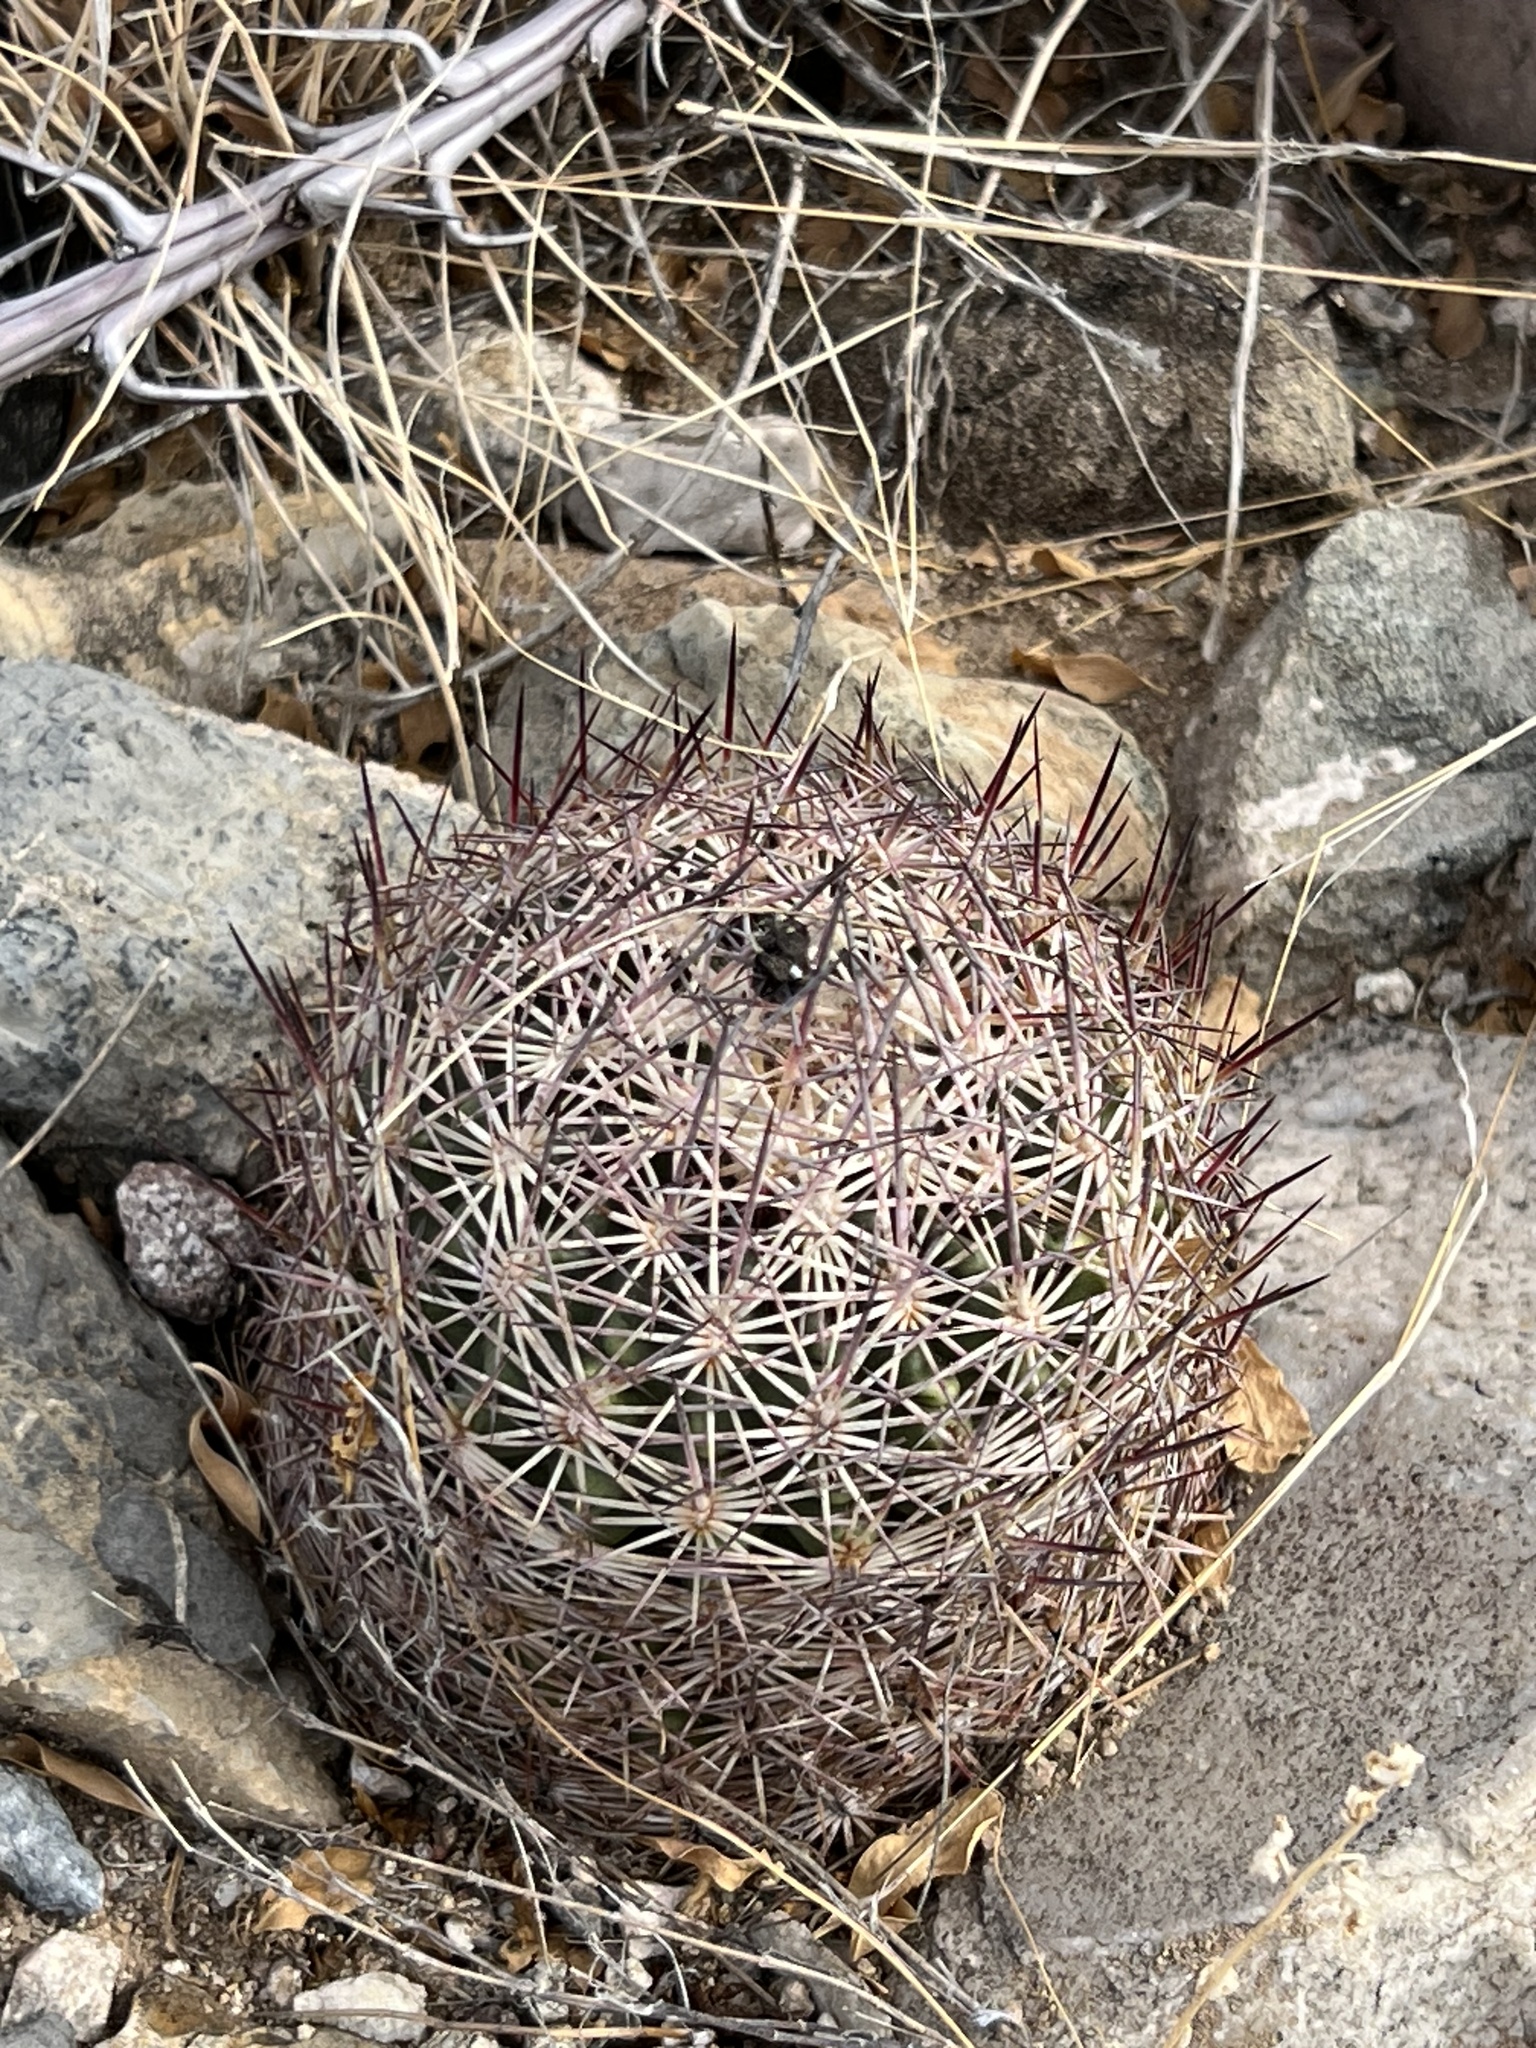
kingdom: Plantae
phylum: Tracheophyta
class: Magnoliopsida
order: Caryophyllales
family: Cactaceae
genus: Sclerocactus
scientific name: Sclerocactus johnsonii
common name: Eight-spine fishhook cactus
